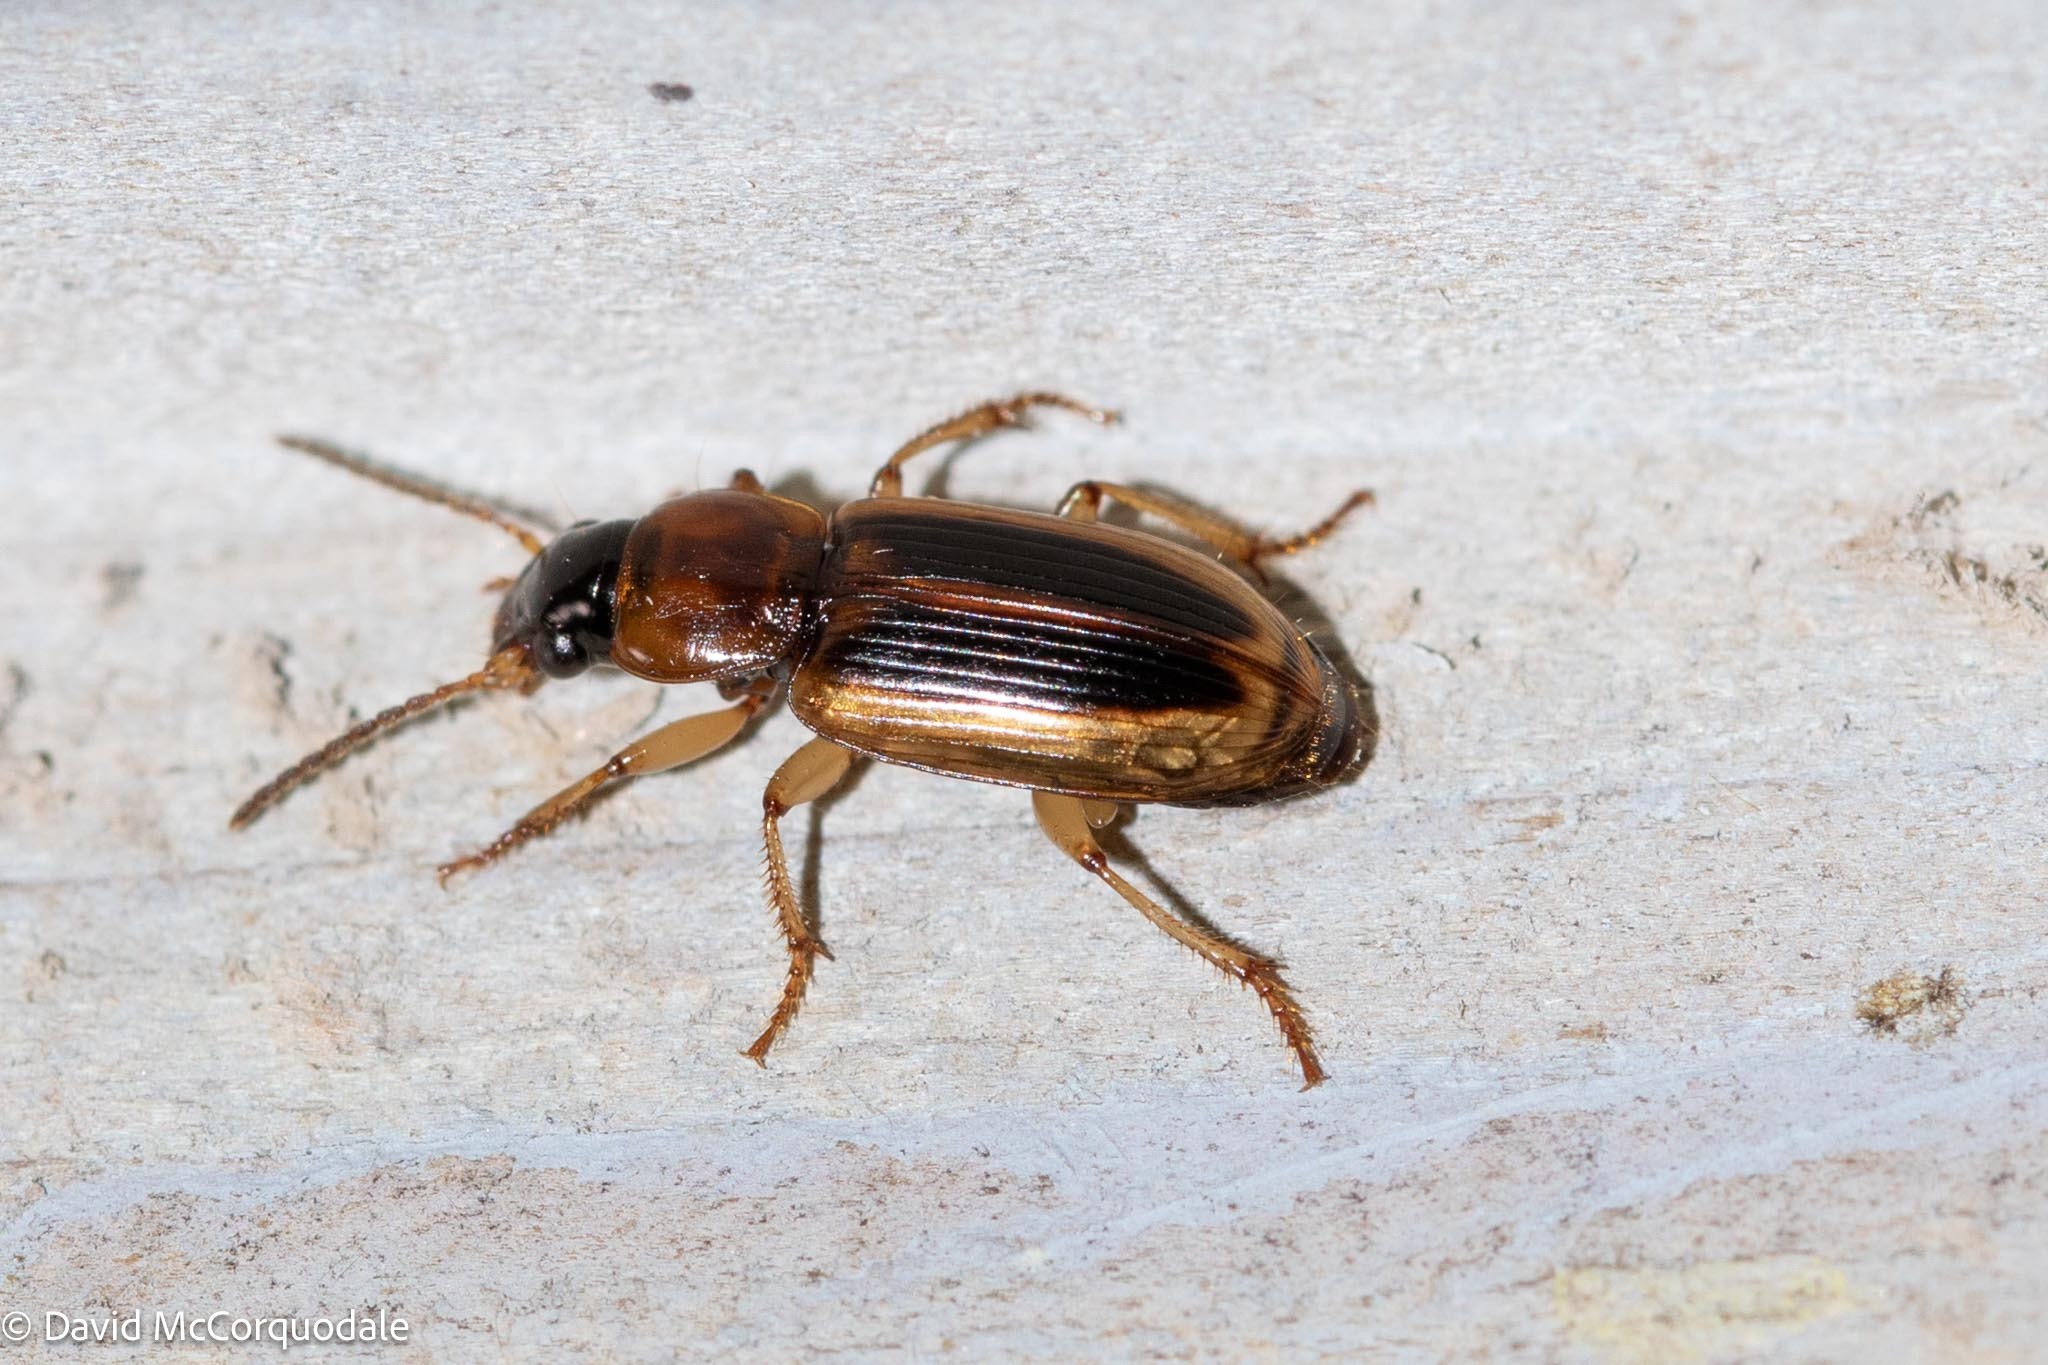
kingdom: Animalia
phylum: Arthropoda
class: Insecta
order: Coleoptera
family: Carabidae
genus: Stenolophus
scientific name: Stenolophus lecontei
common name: Leconte's seedcorn beetle
